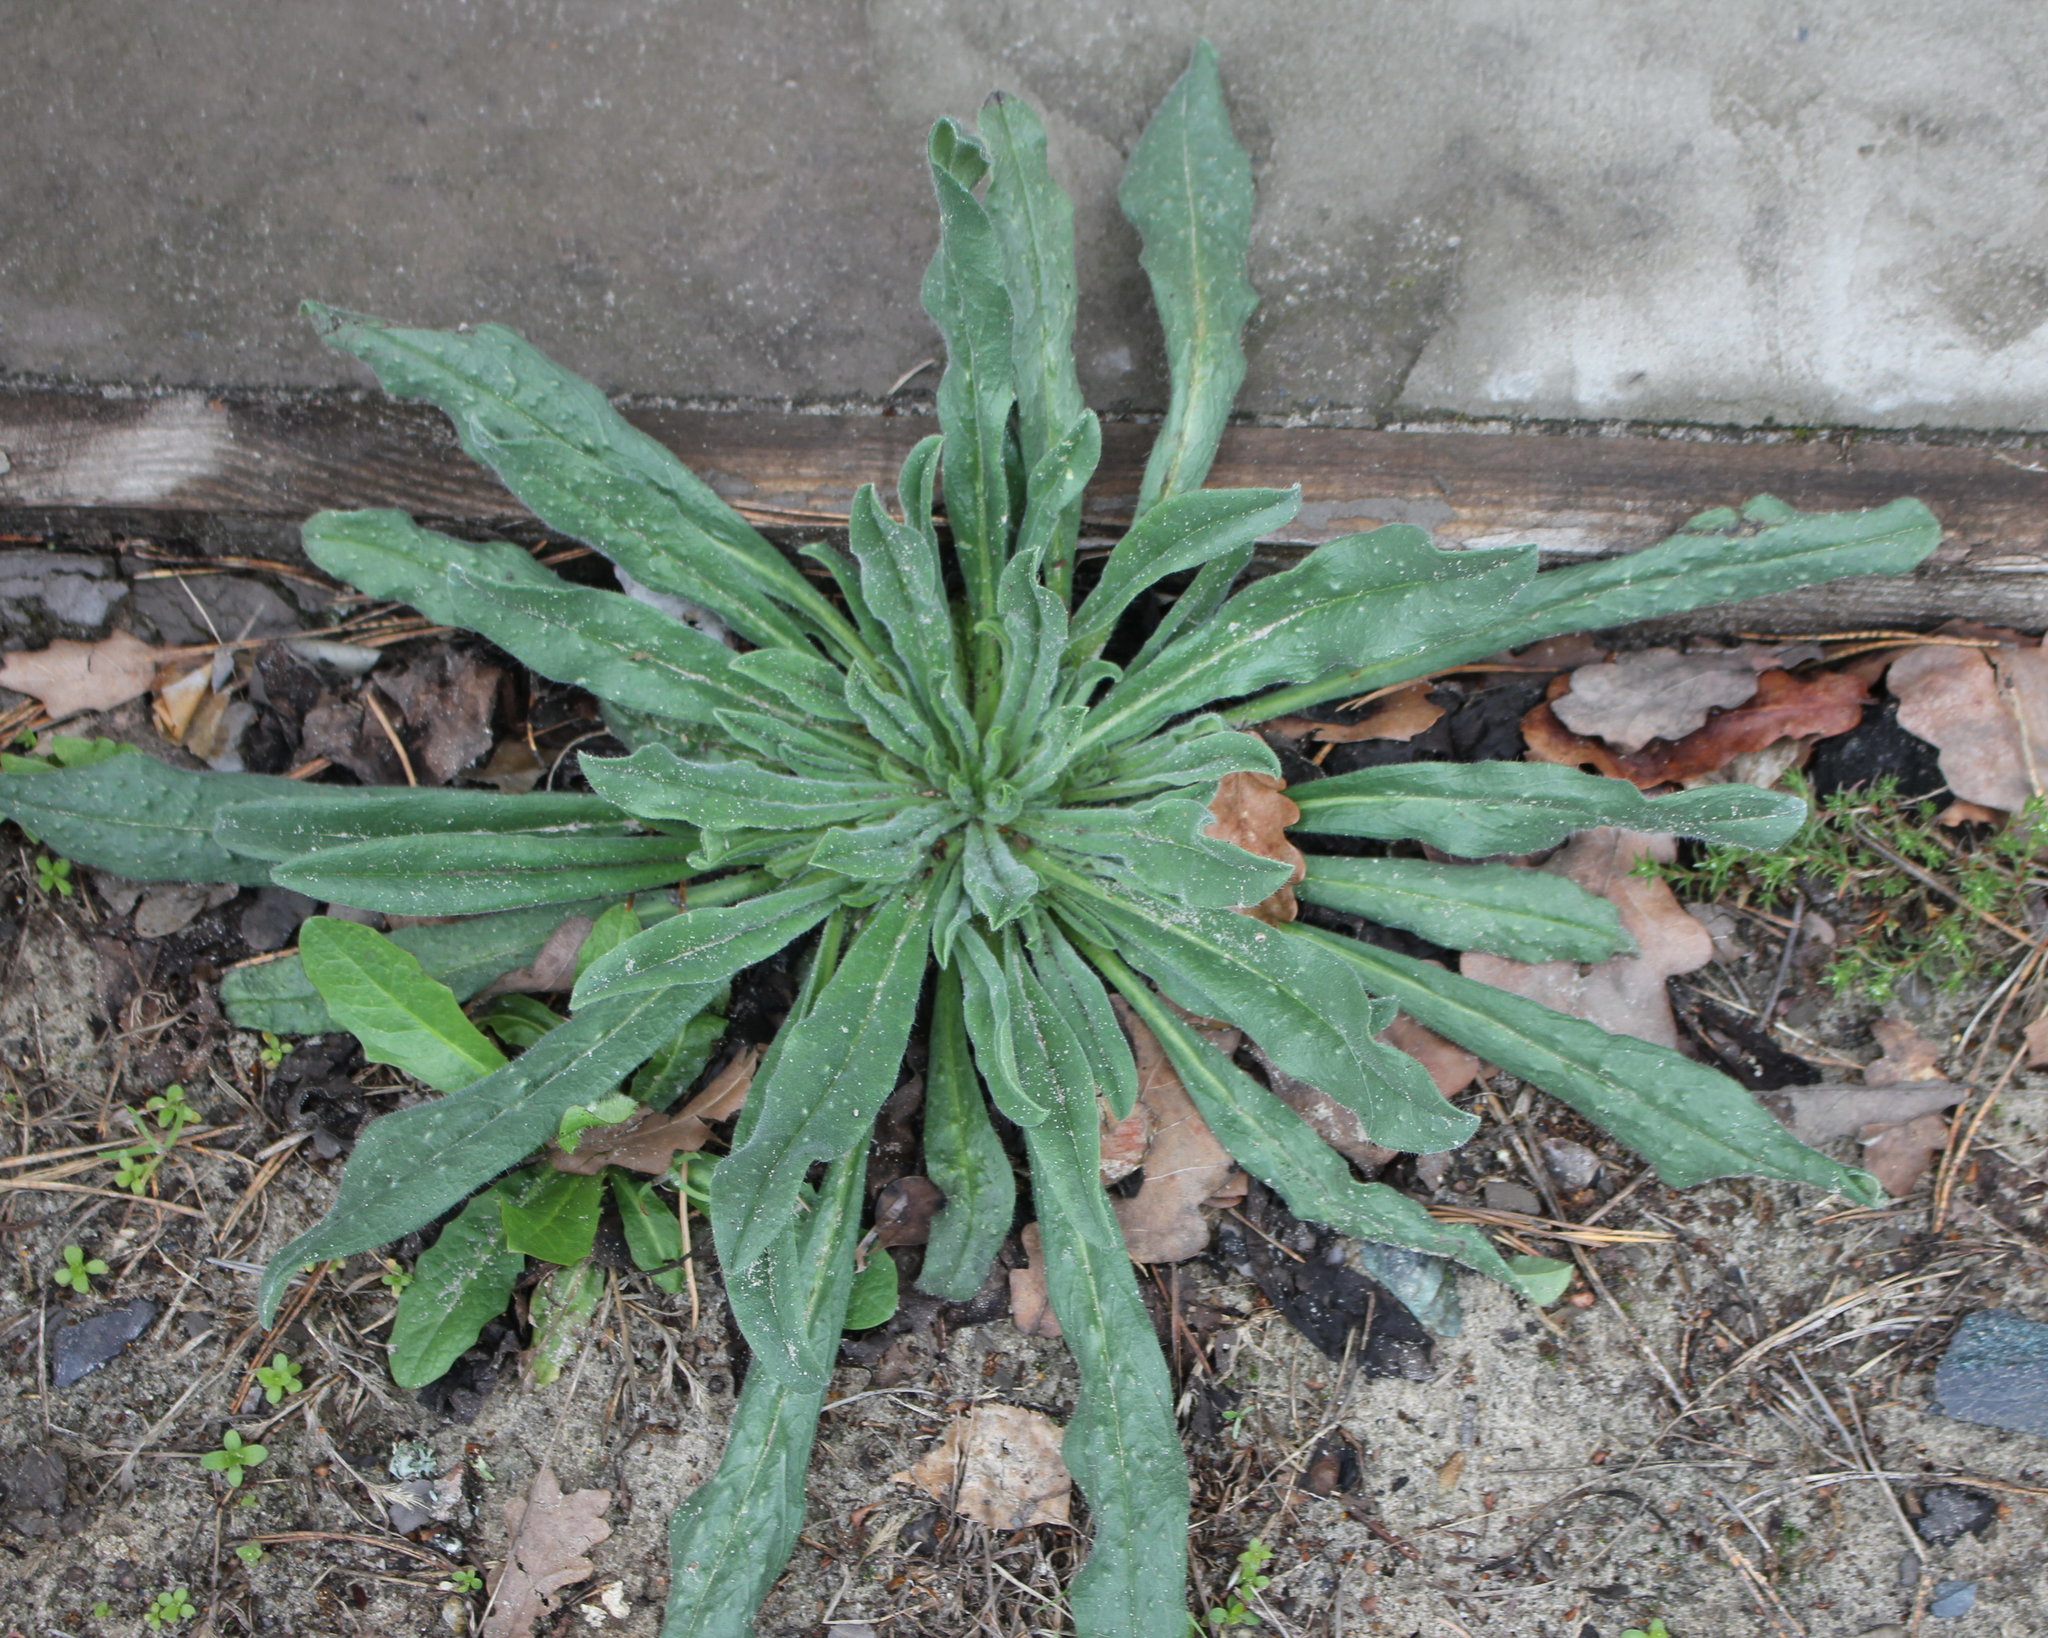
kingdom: Plantae
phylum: Tracheophyta
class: Magnoliopsida
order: Boraginales
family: Boraginaceae
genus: Echium
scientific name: Echium vulgare
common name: Common viper's bugloss
